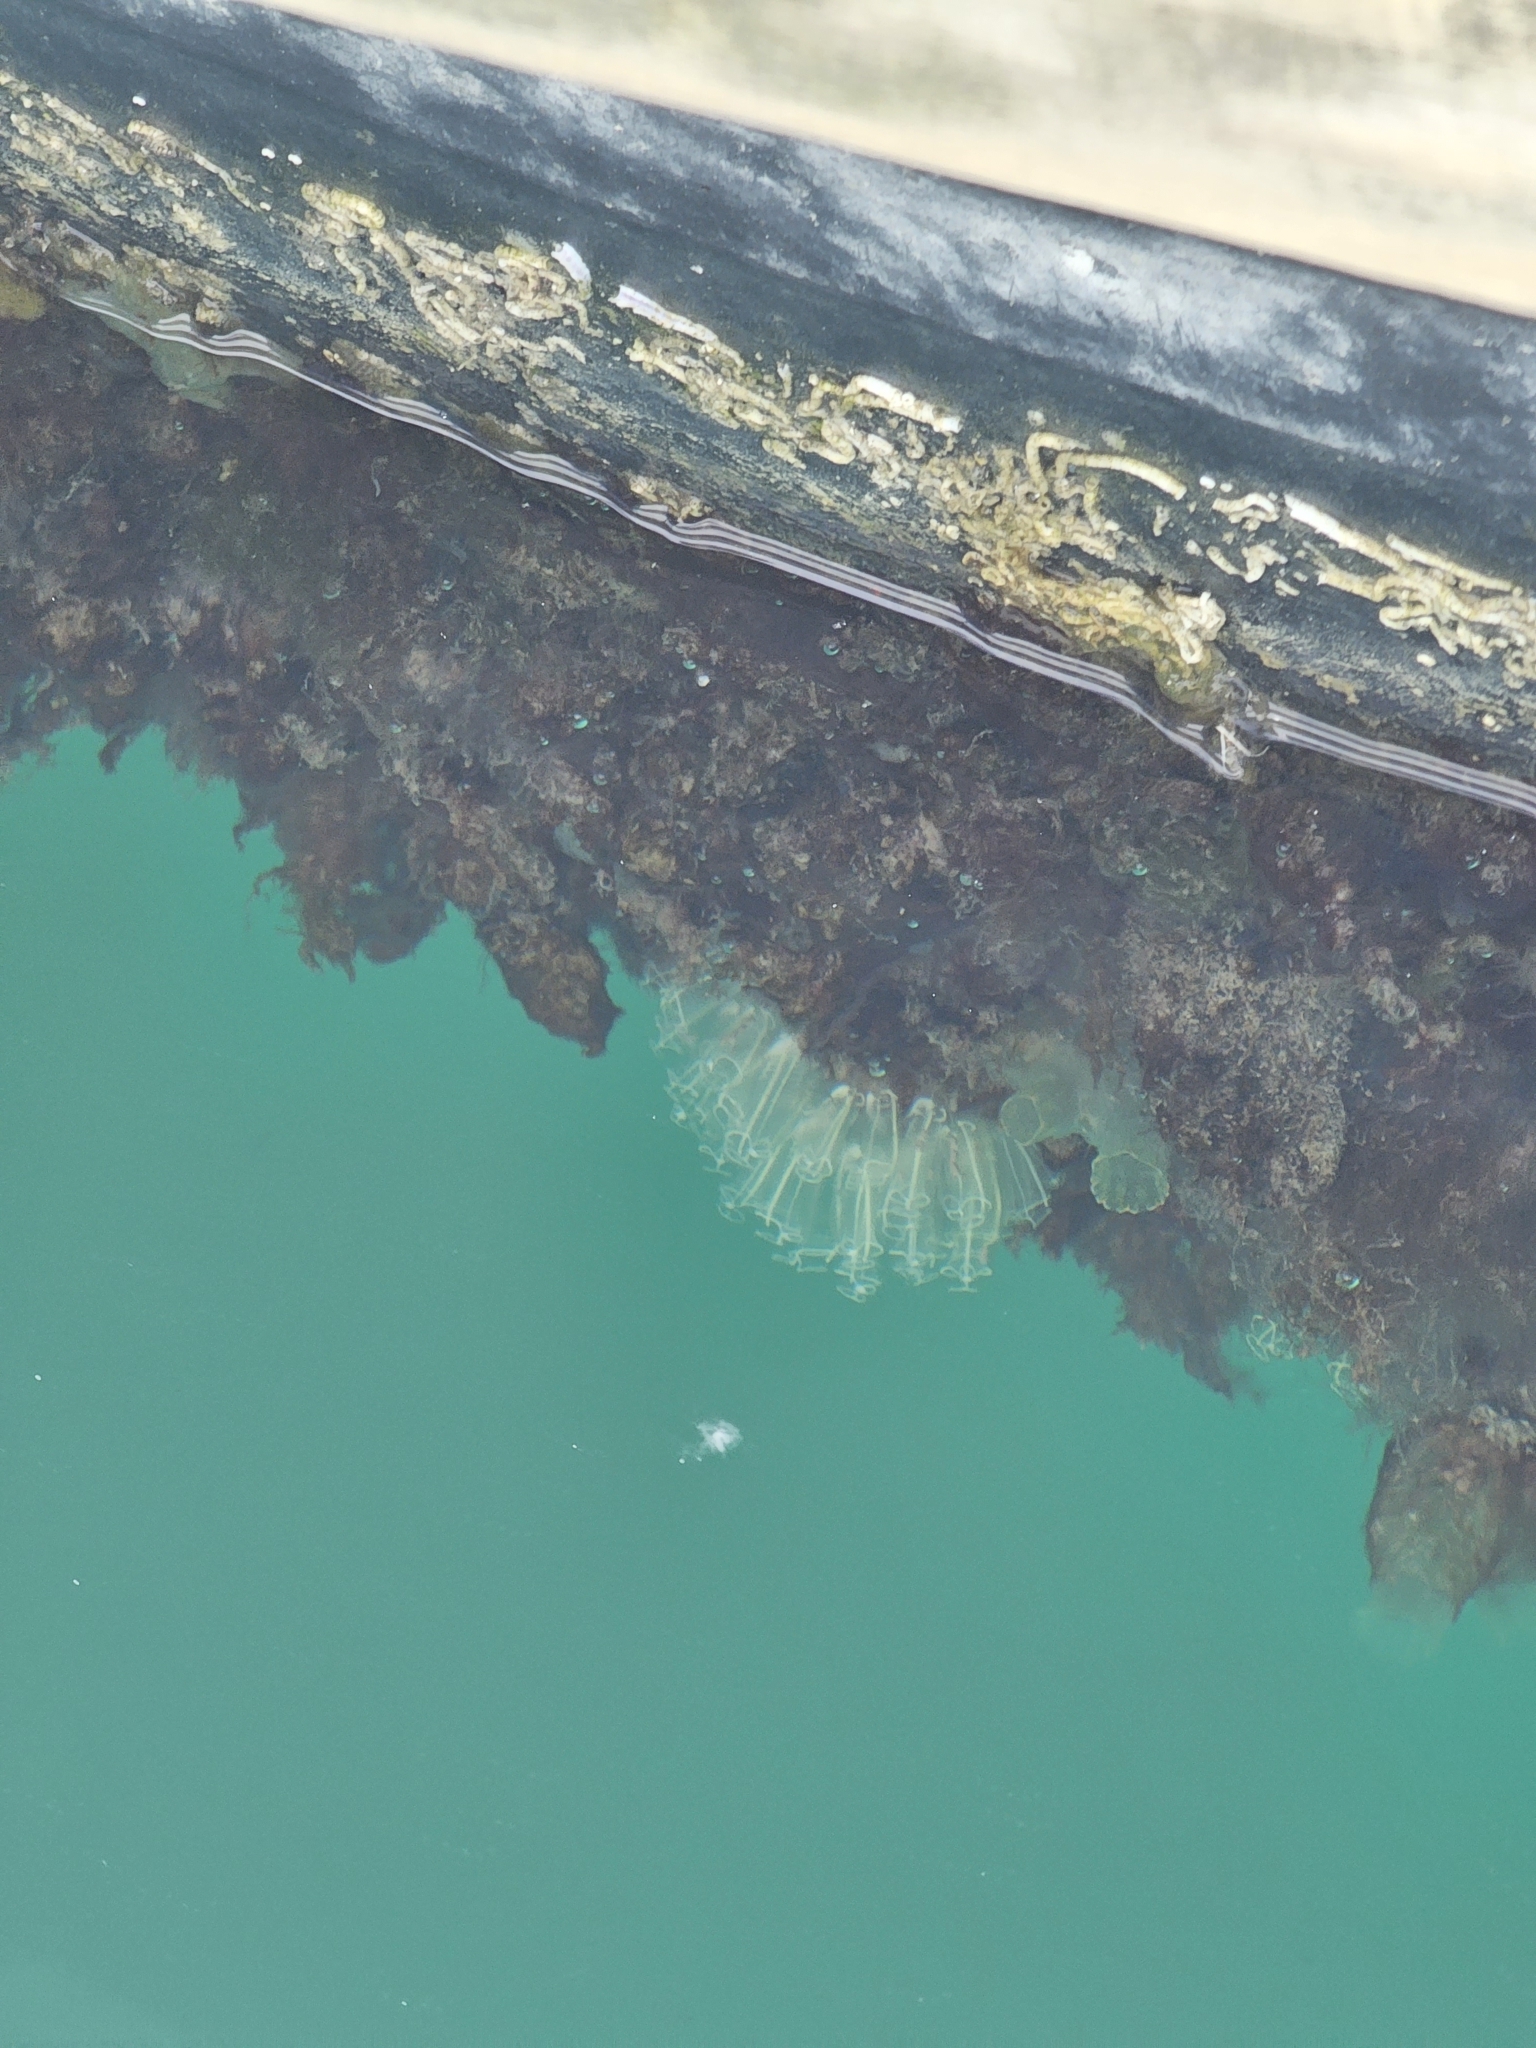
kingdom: Animalia
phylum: Chordata
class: Ascidiacea
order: Aplousobranchia
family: Clavelinidae
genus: Clavelina
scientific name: Clavelina lepadiformis
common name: Light bulb tunicate
